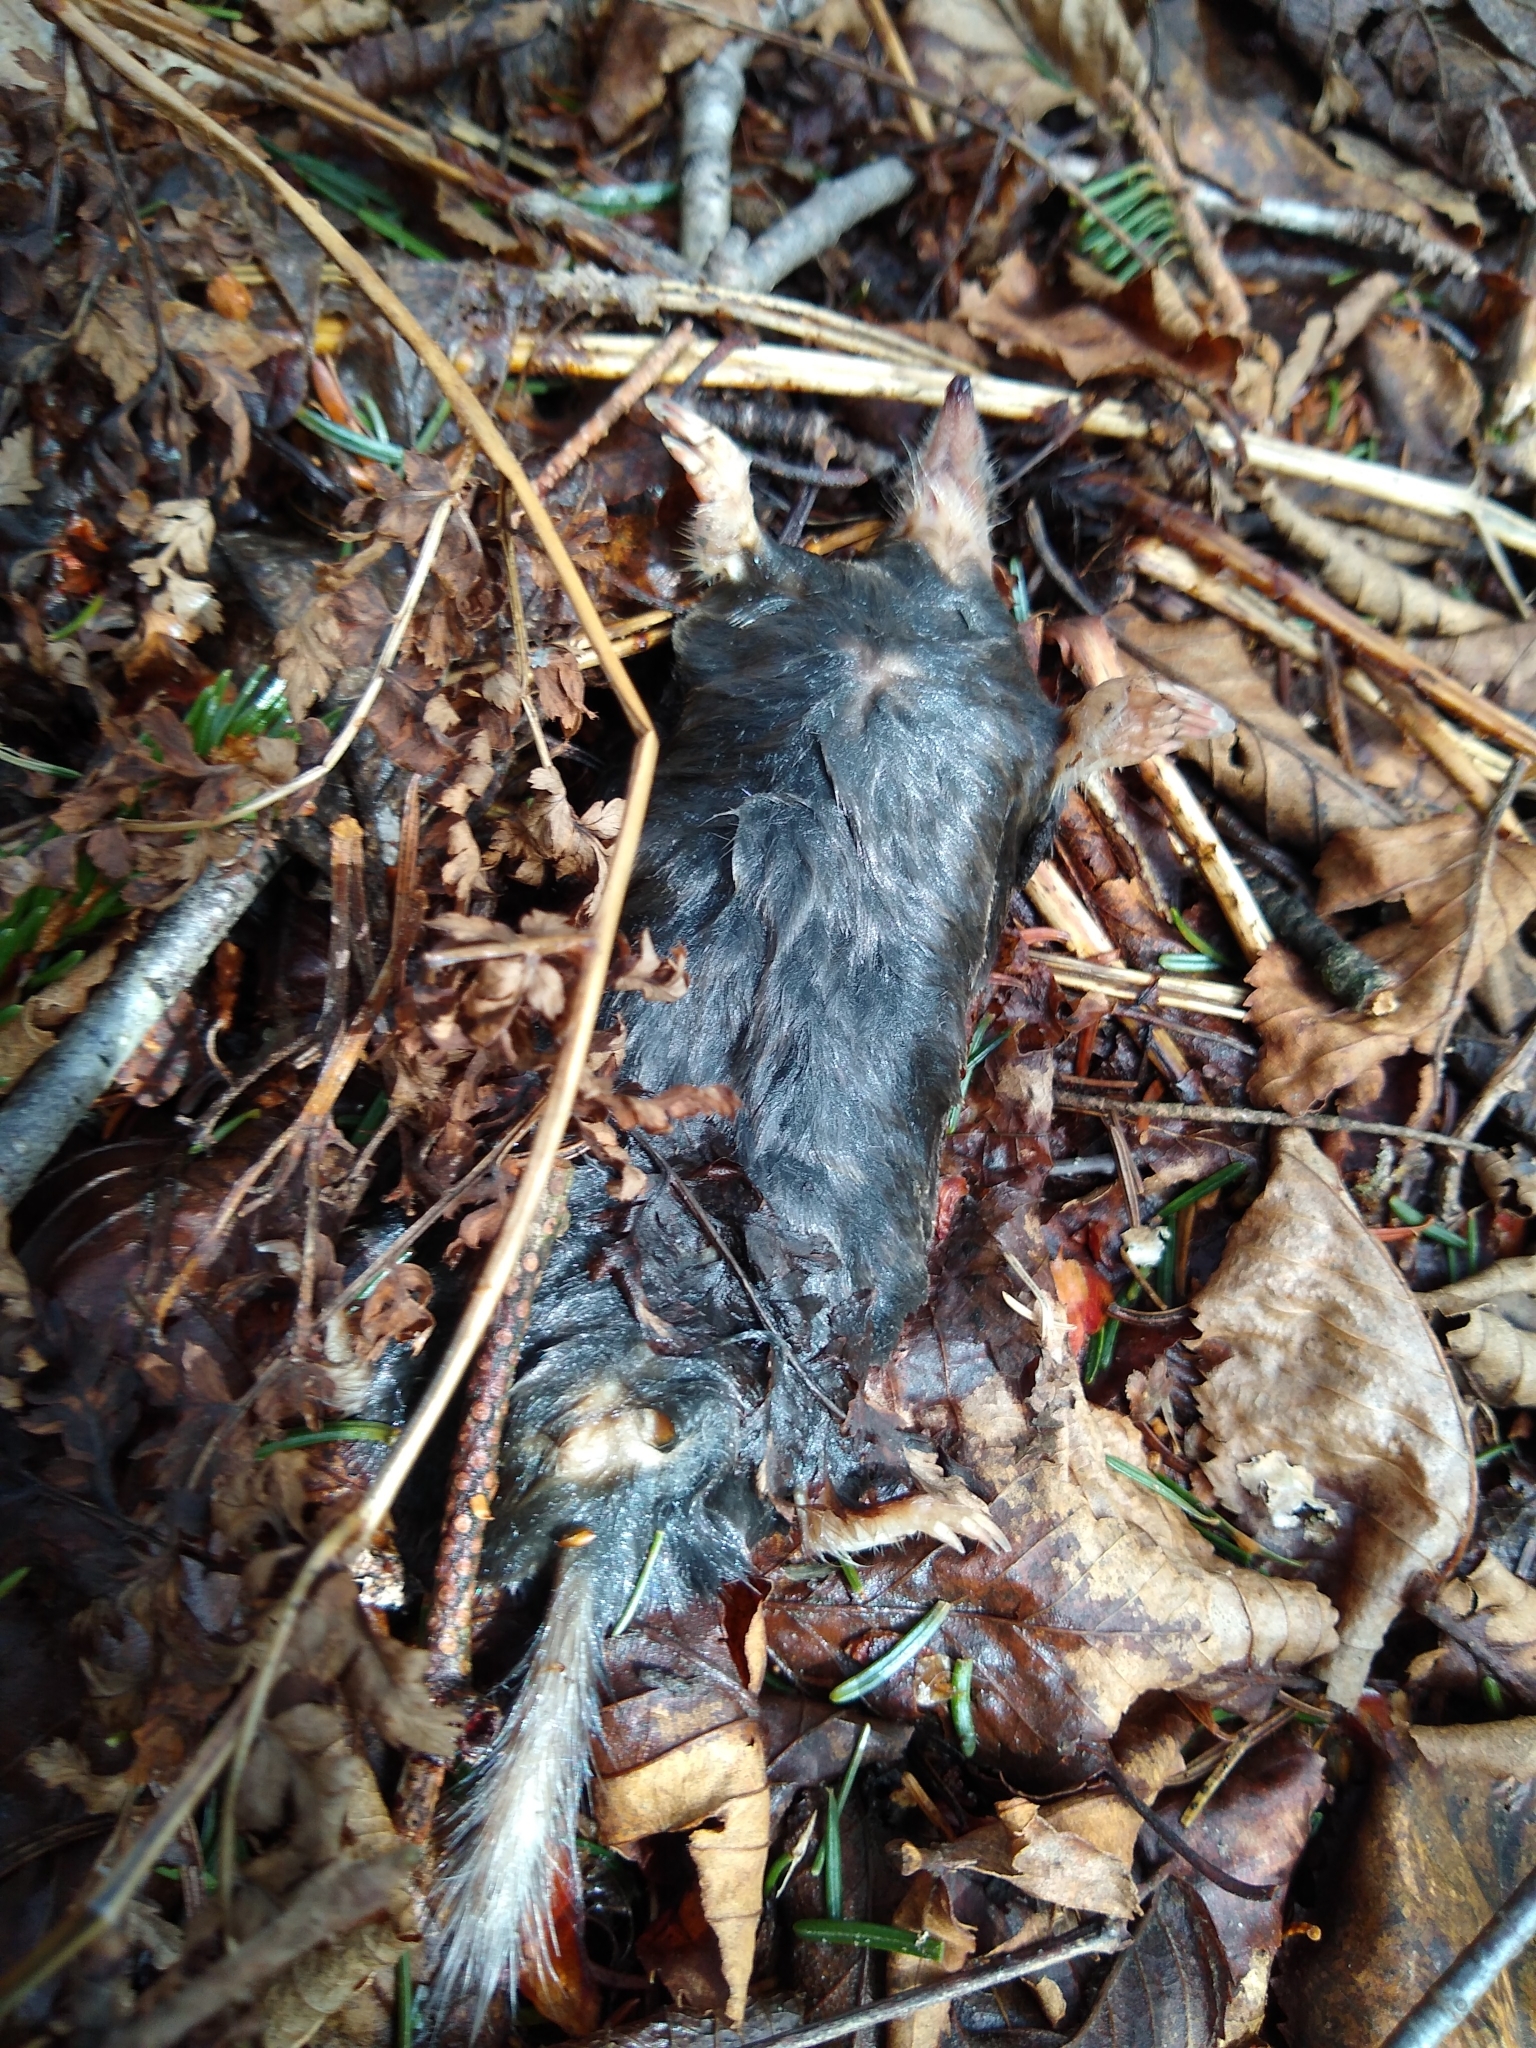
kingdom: Animalia
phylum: Chordata
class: Mammalia
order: Soricomorpha
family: Talpidae
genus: Parascalops
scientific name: Parascalops breweri
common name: Hairy-tailed mole
